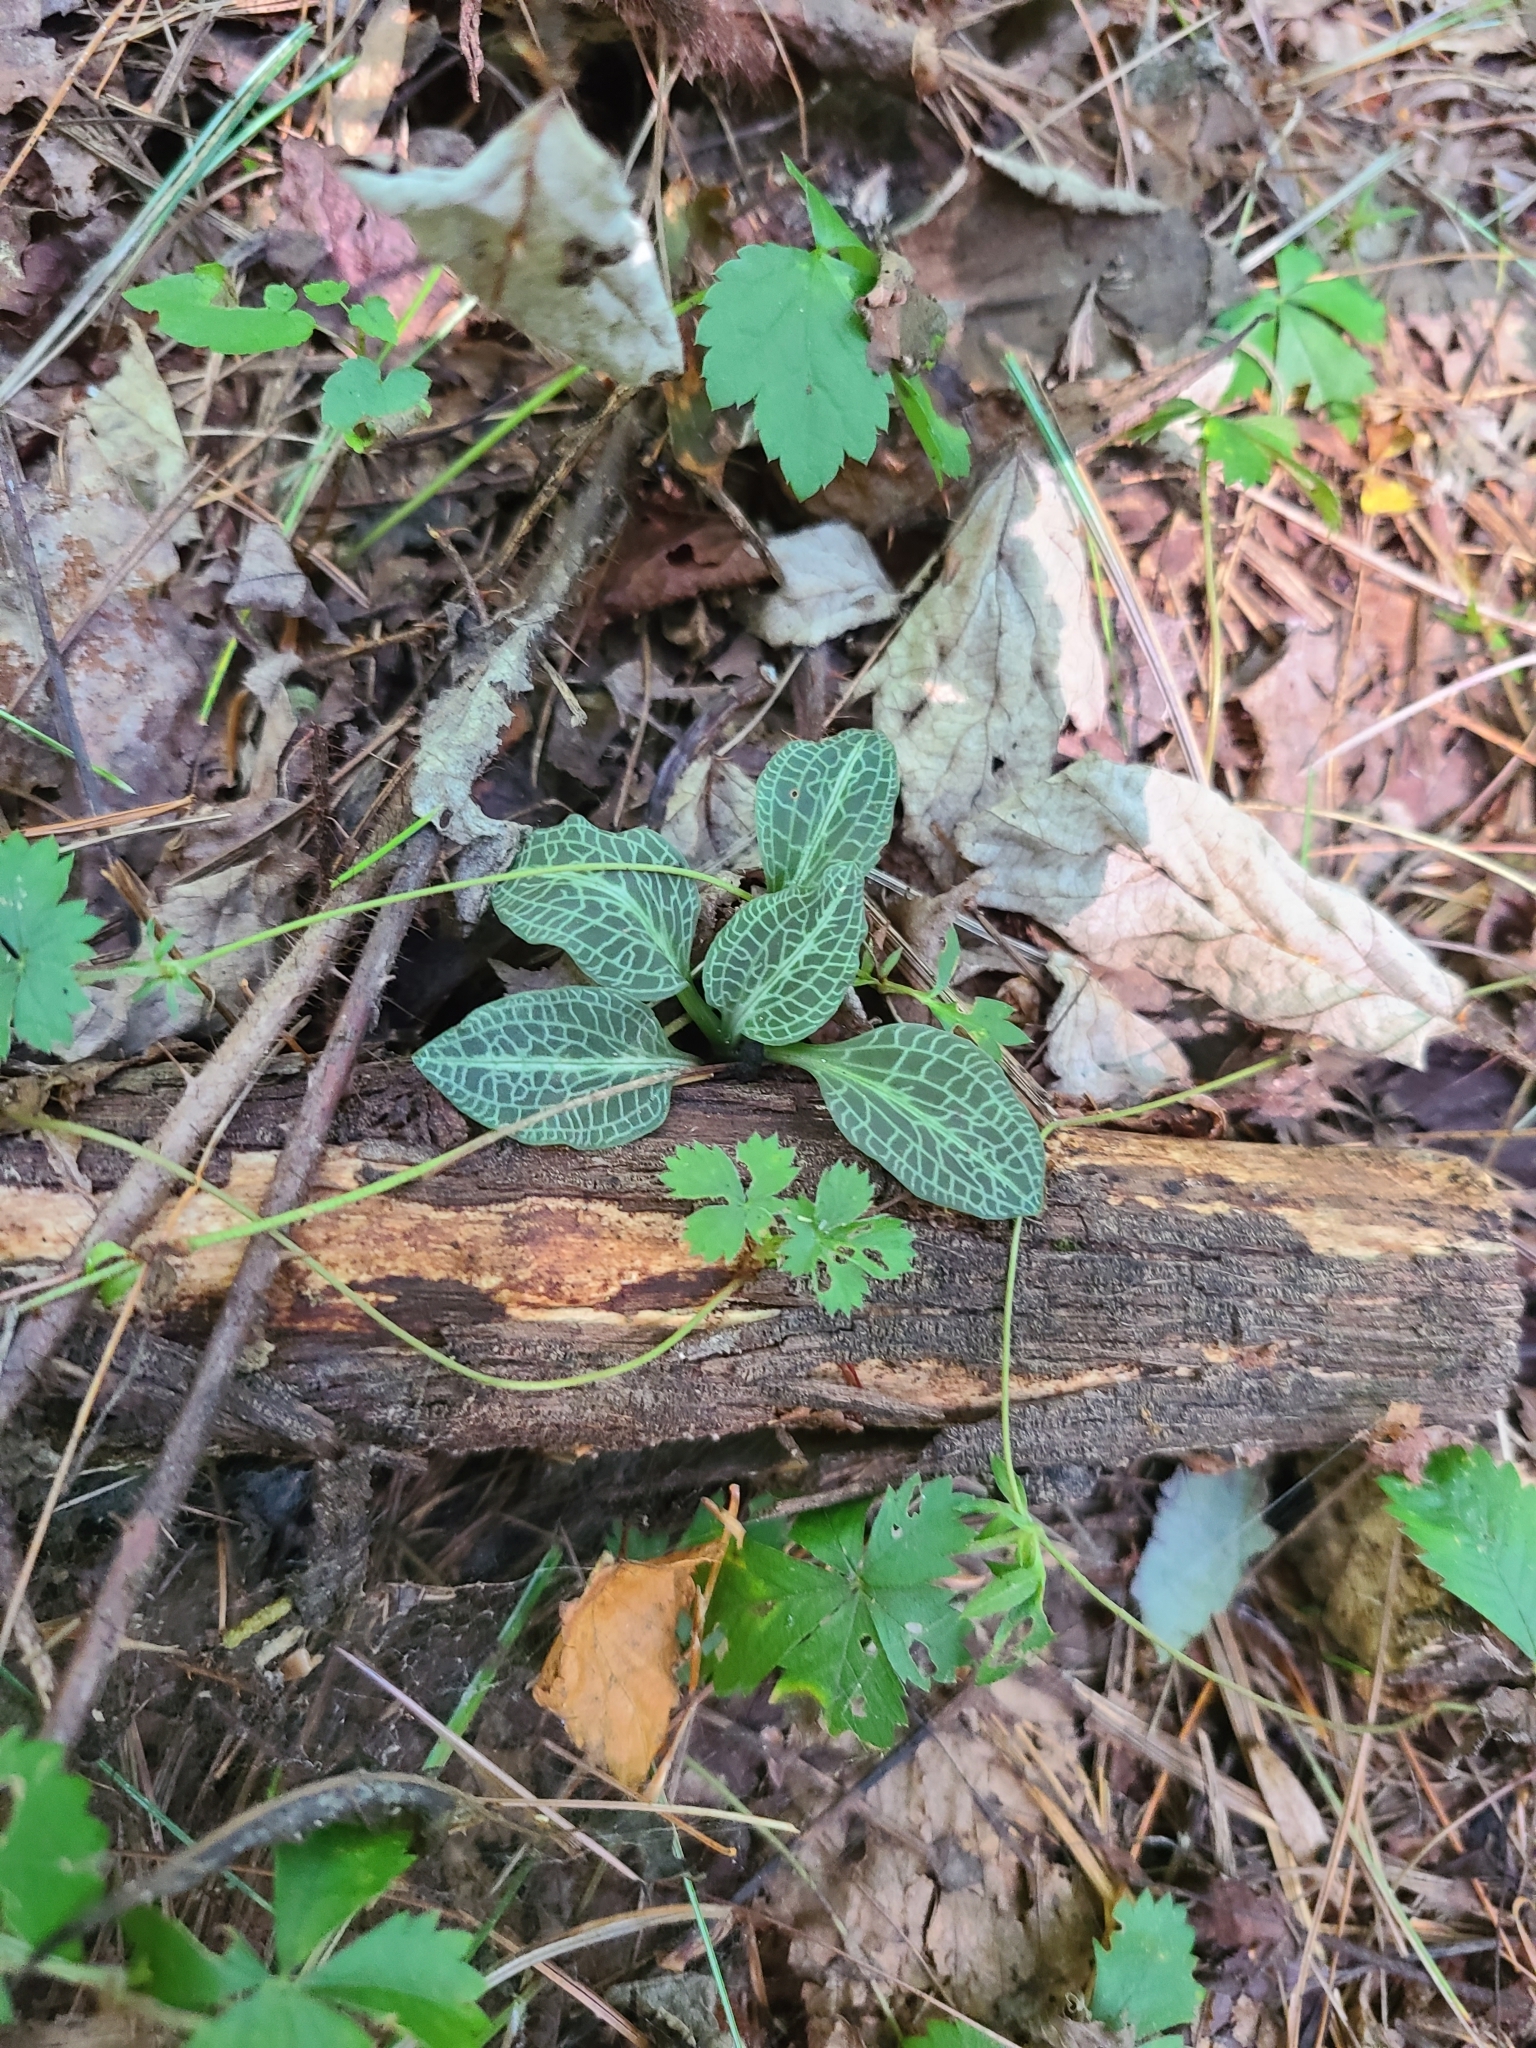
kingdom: Plantae
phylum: Tracheophyta
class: Liliopsida
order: Asparagales
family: Orchidaceae
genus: Goodyera
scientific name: Goodyera pubescens
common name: Downy rattlesnake-plantain
